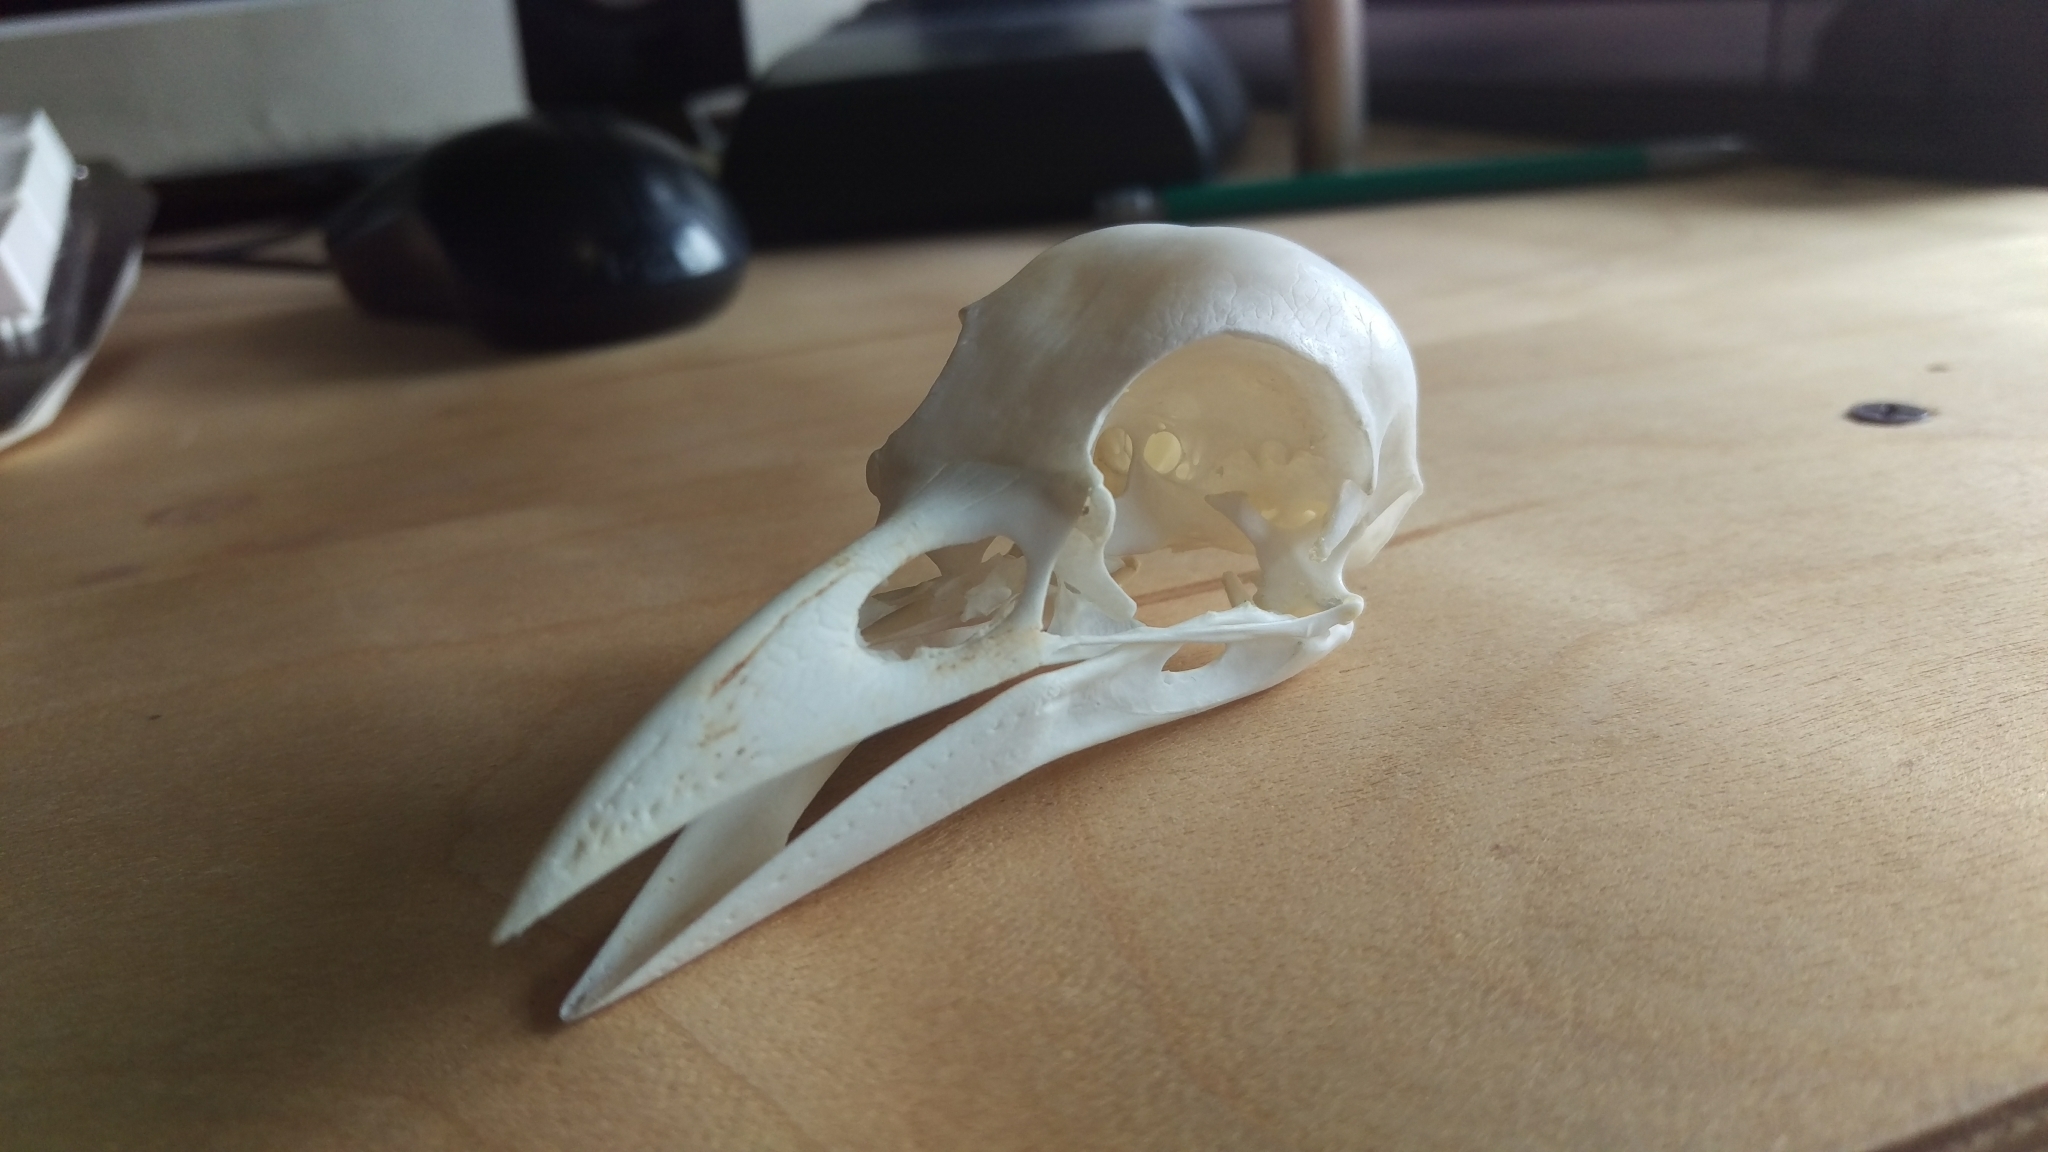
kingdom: Animalia
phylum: Chordata
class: Aves
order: Passeriformes
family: Corvidae
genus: Corvus
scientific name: Corvus brachyrhynchos
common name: American crow
